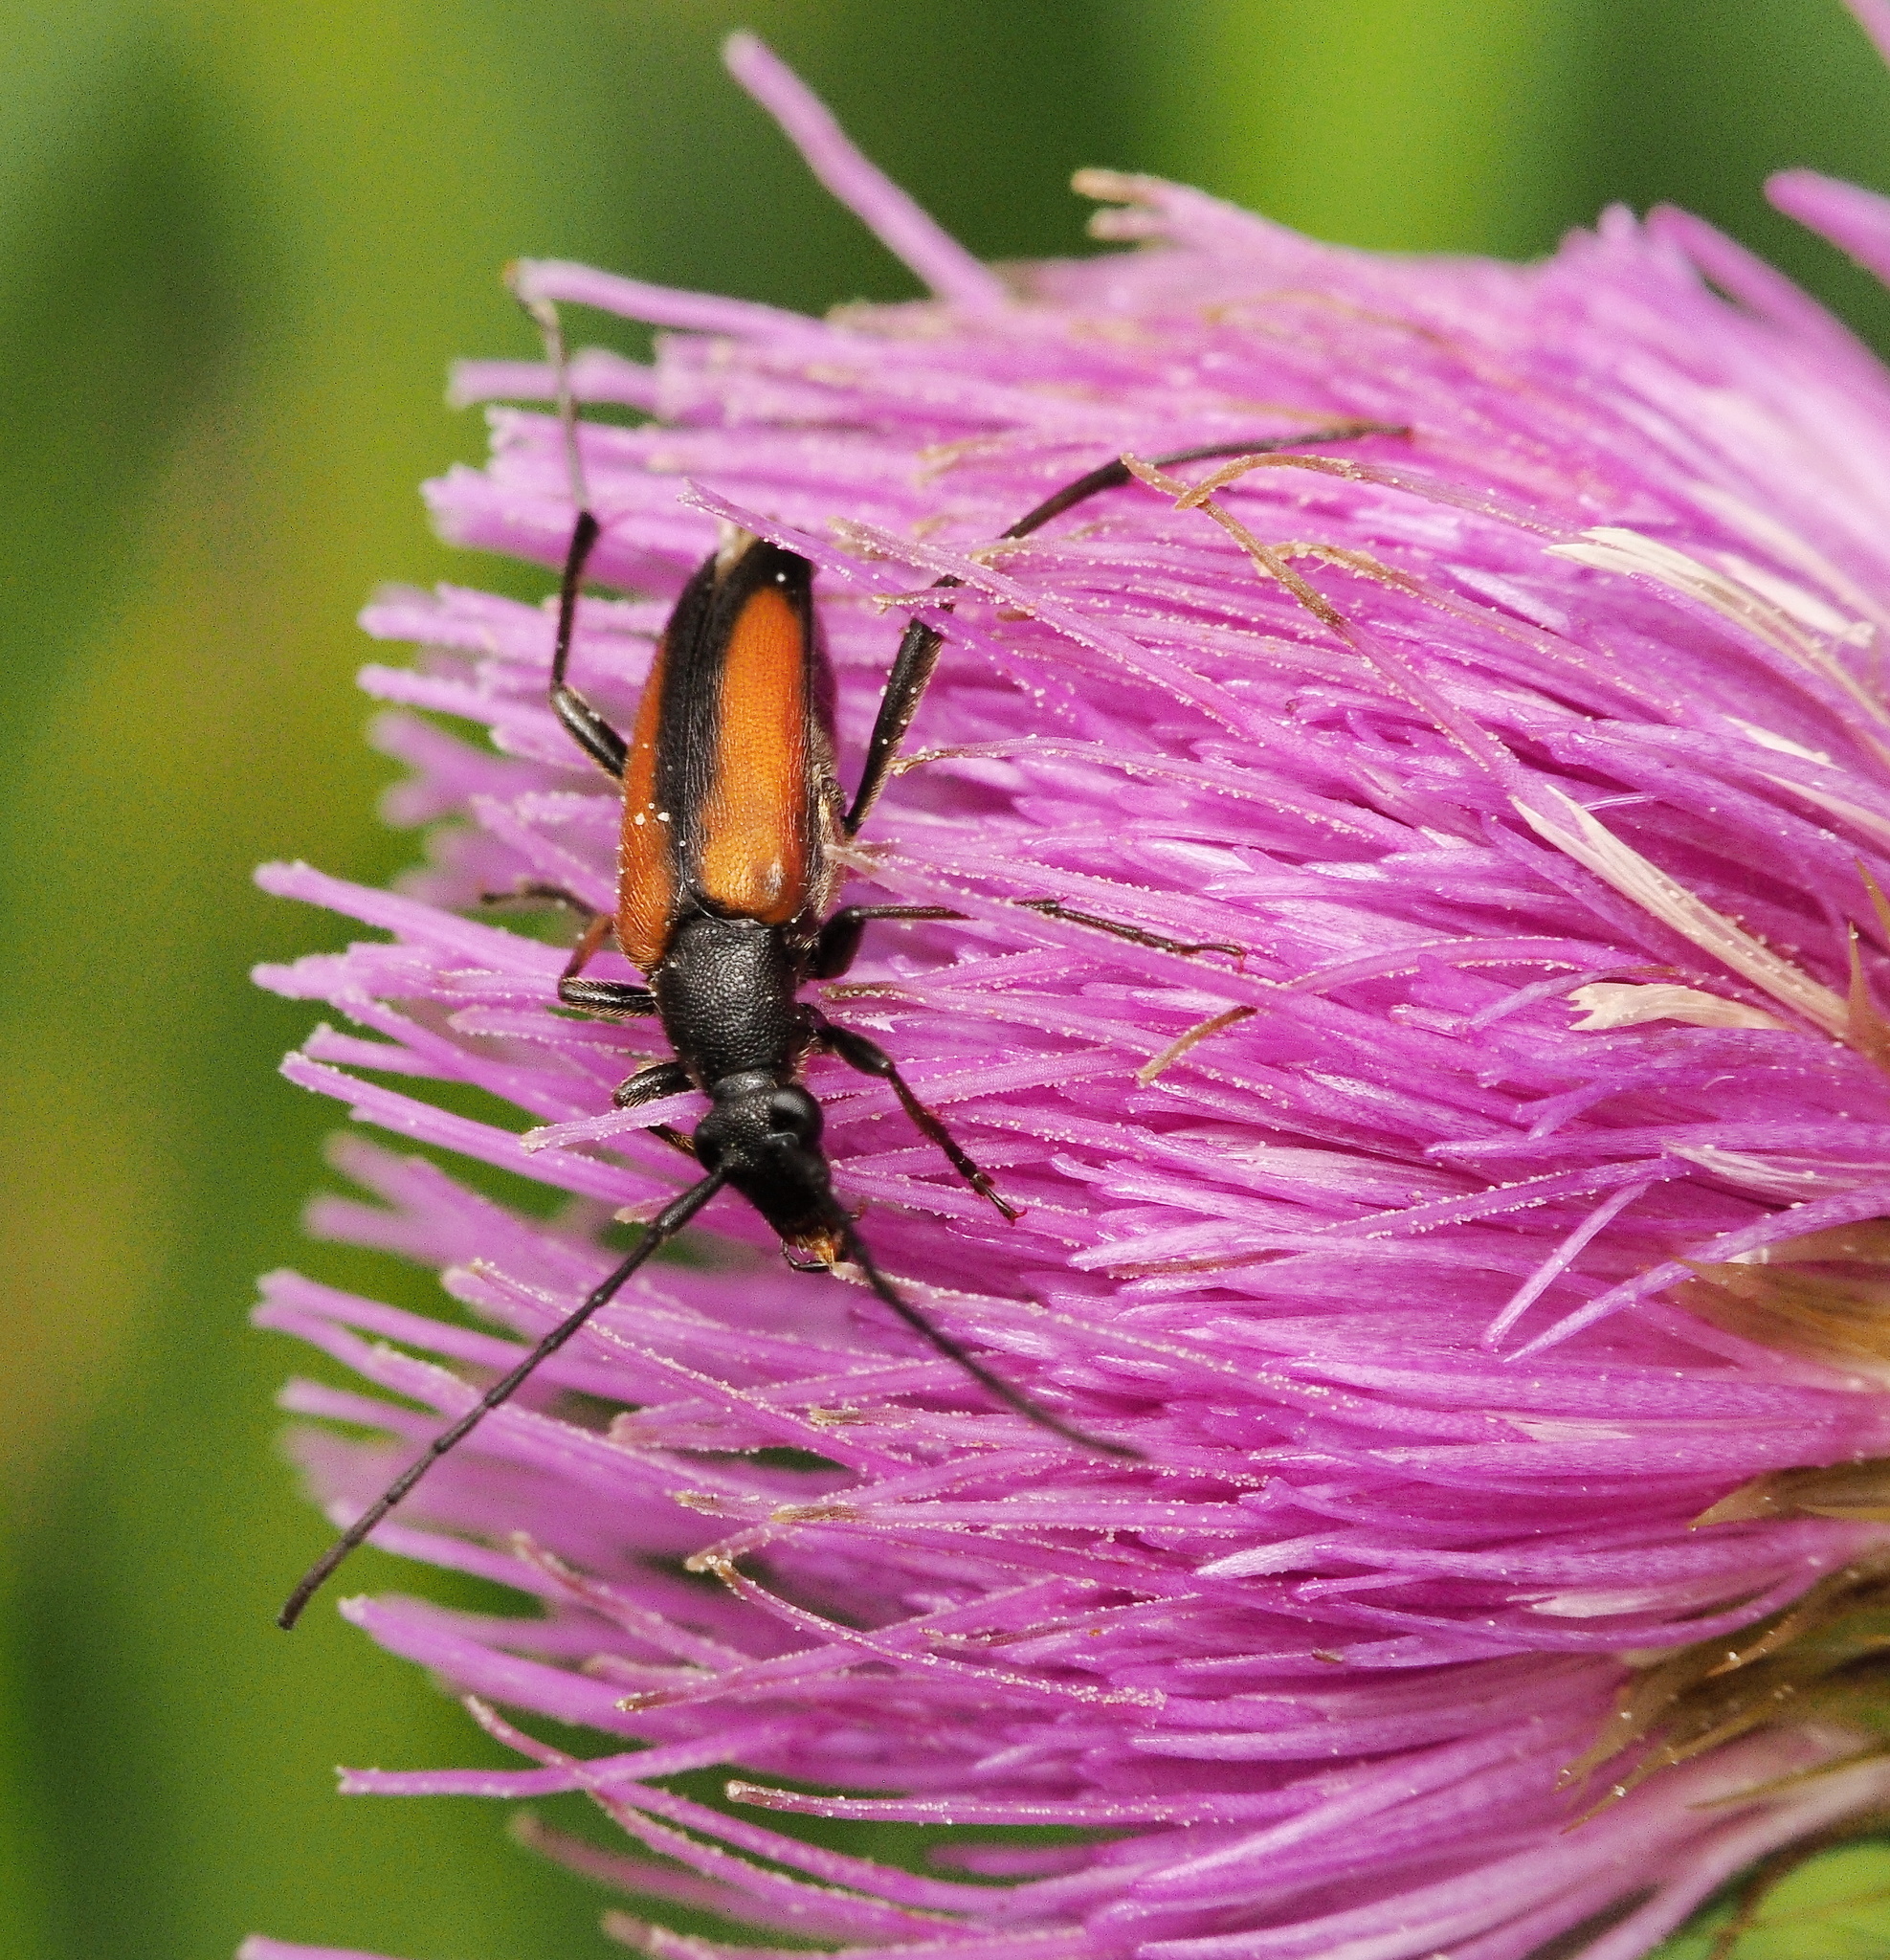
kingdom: Animalia
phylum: Arthropoda
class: Insecta
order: Coleoptera
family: Cerambycidae
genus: Stenurella
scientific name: Stenurella melanura
